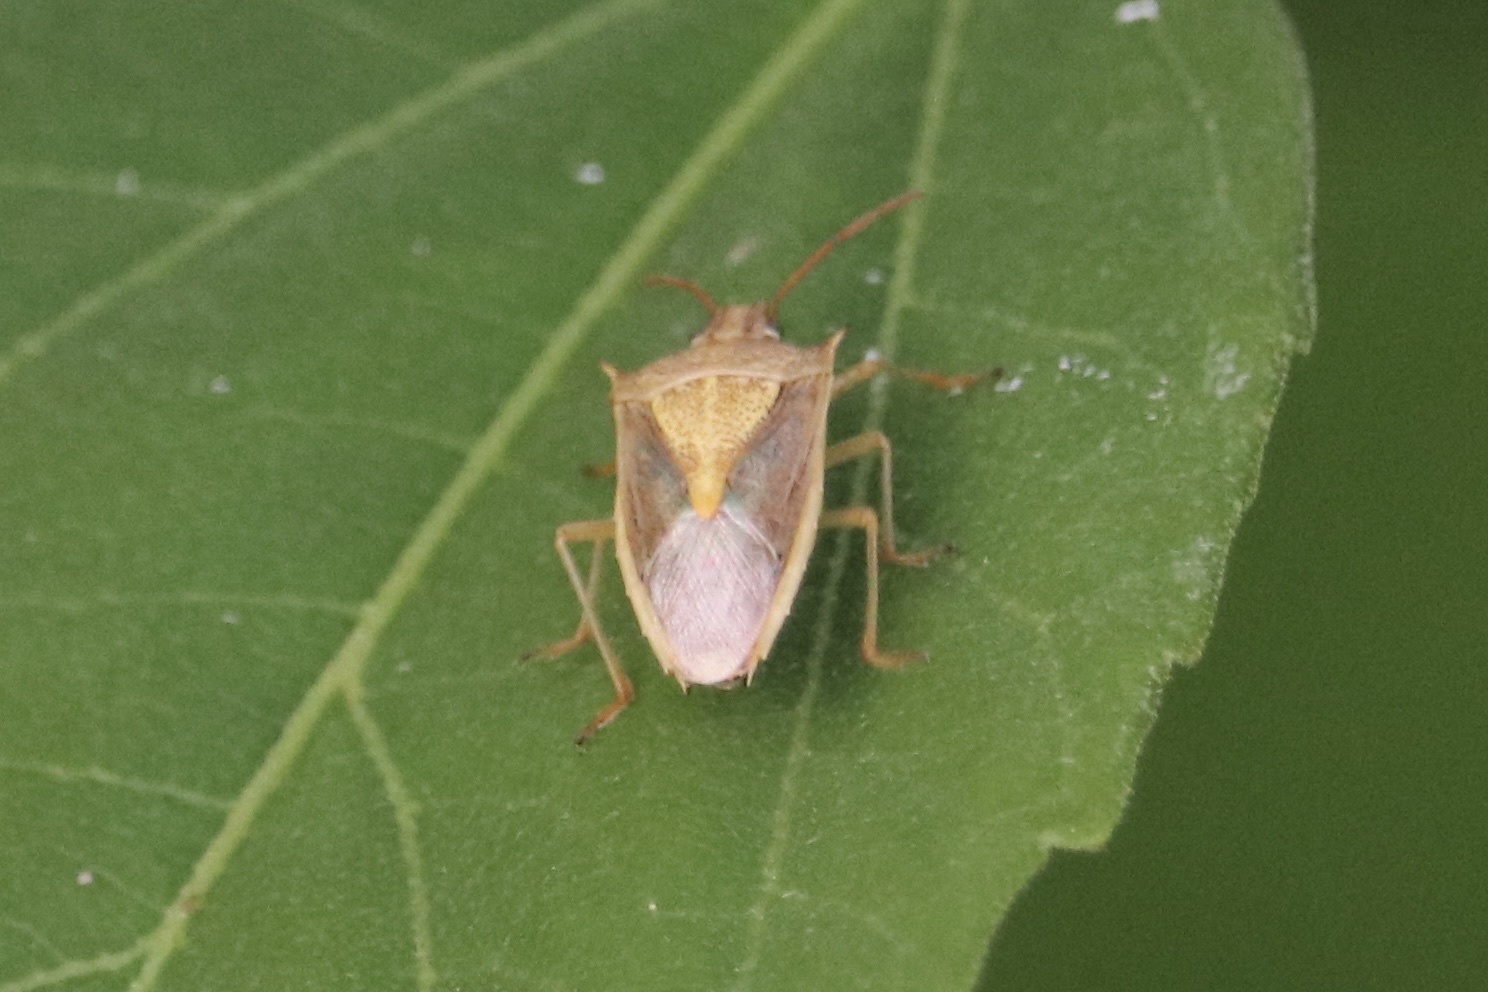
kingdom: Animalia
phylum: Arthropoda
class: Insecta
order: Hemiptera
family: Pentatomidae
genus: Oebalus
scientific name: Oebalus pugnax
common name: Rice stink bug
